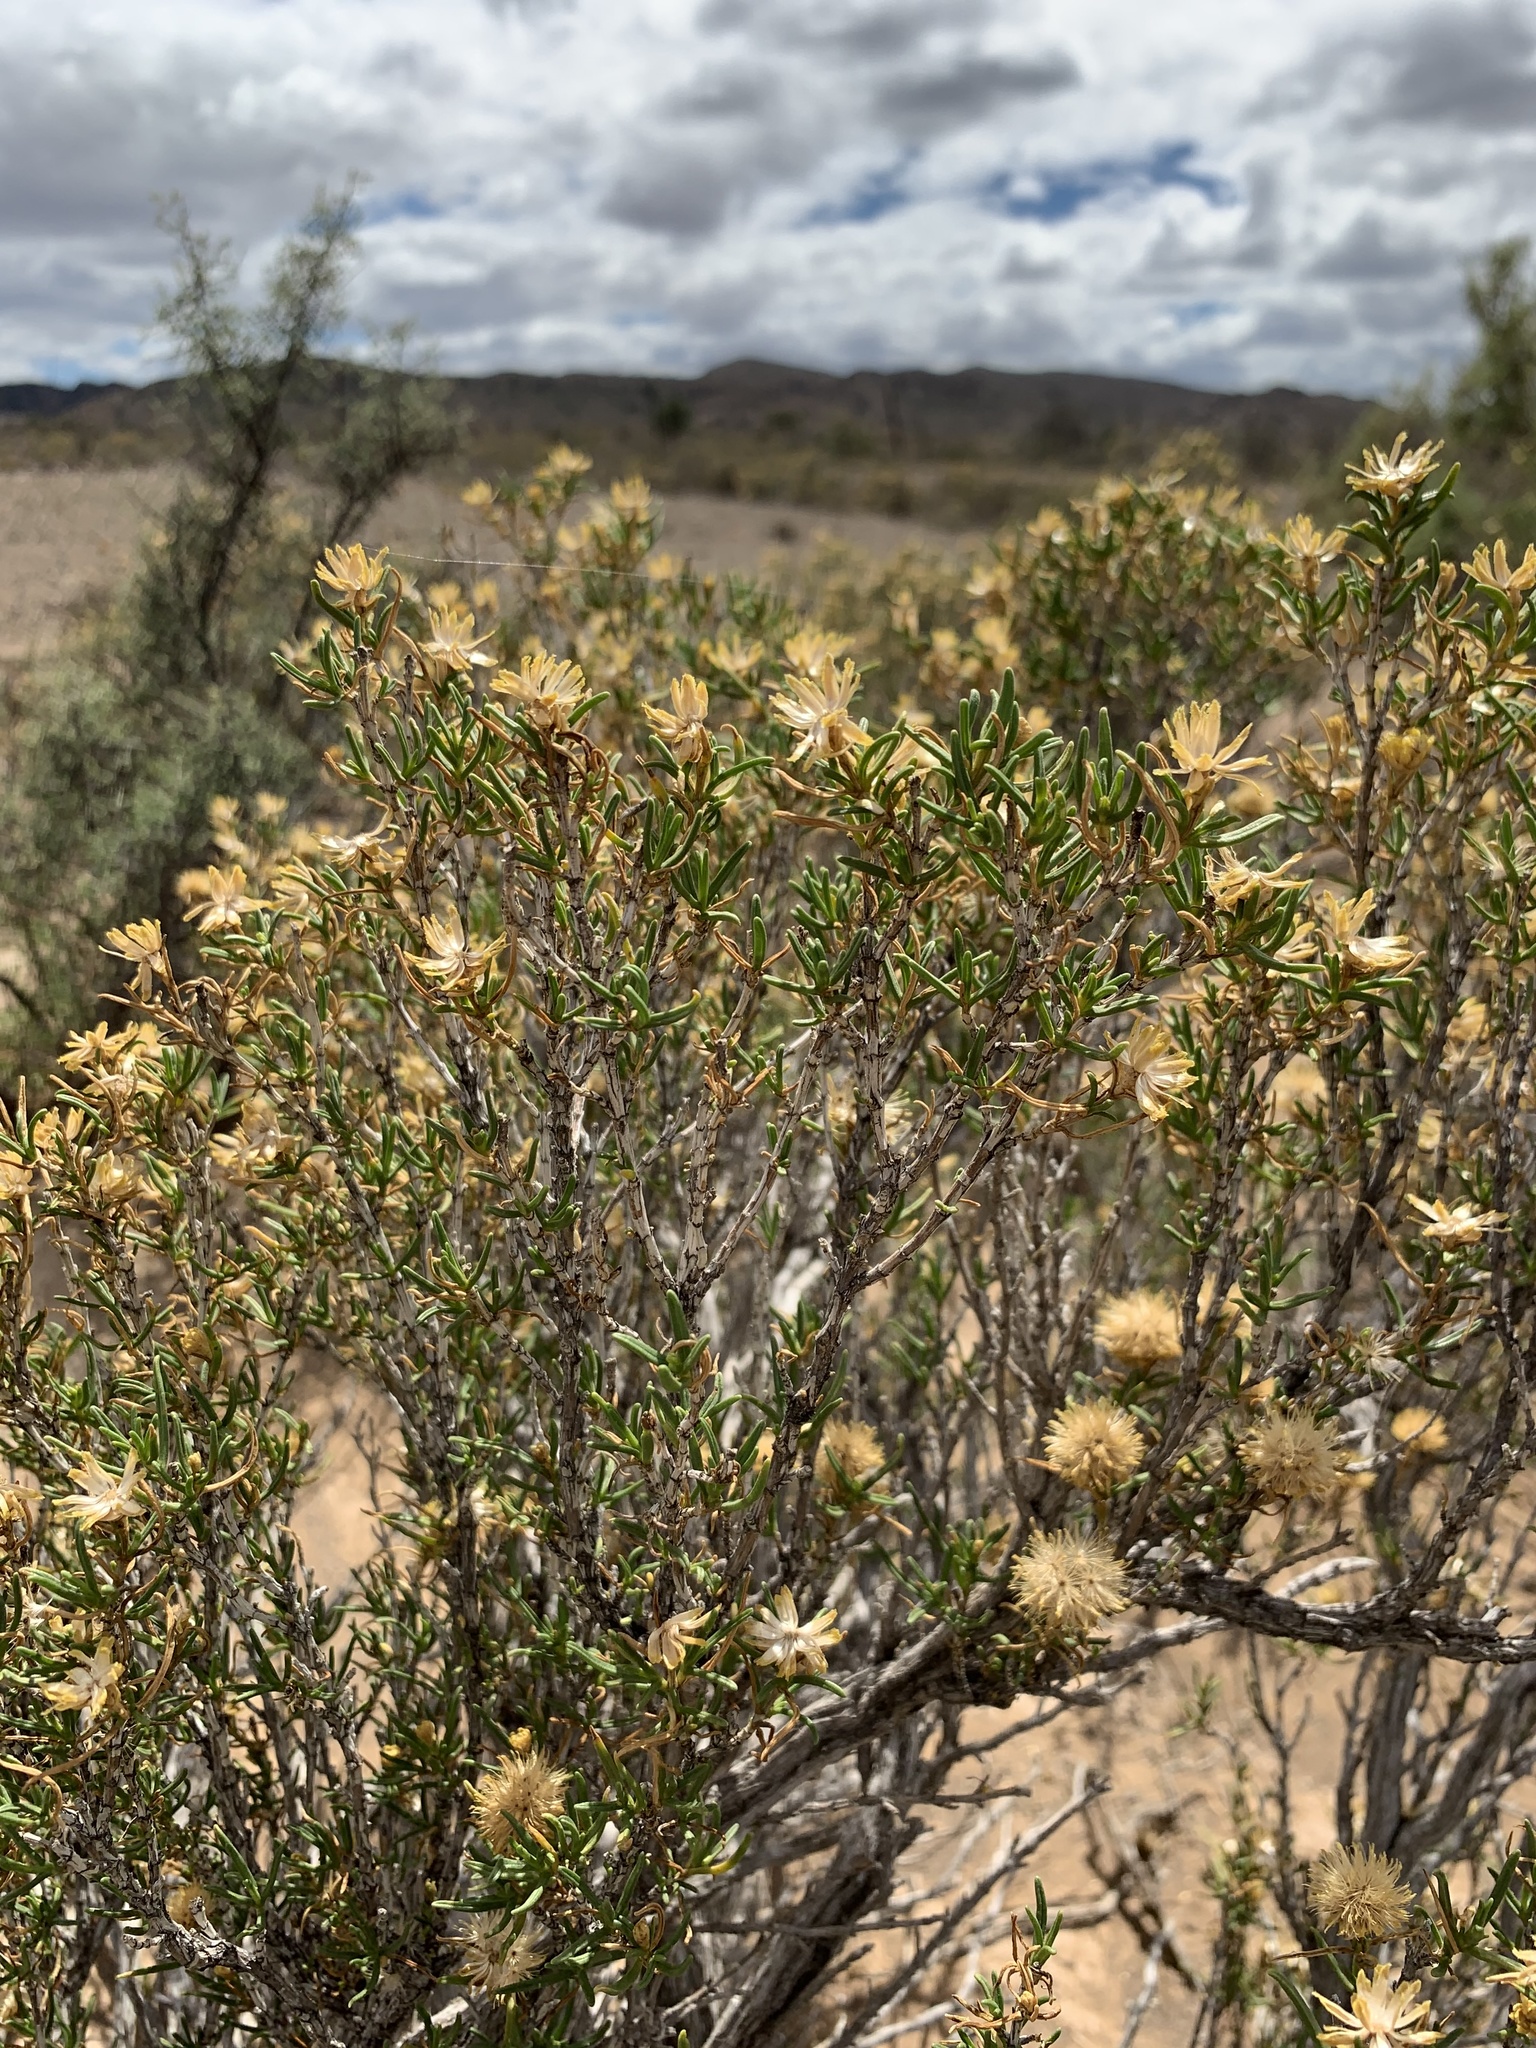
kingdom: Plantae
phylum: Tracheophyta
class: Magnoliopsida
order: Asterales
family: Asteraceae
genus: Pteronia
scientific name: Pteronia pallens
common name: Scholtzbush
